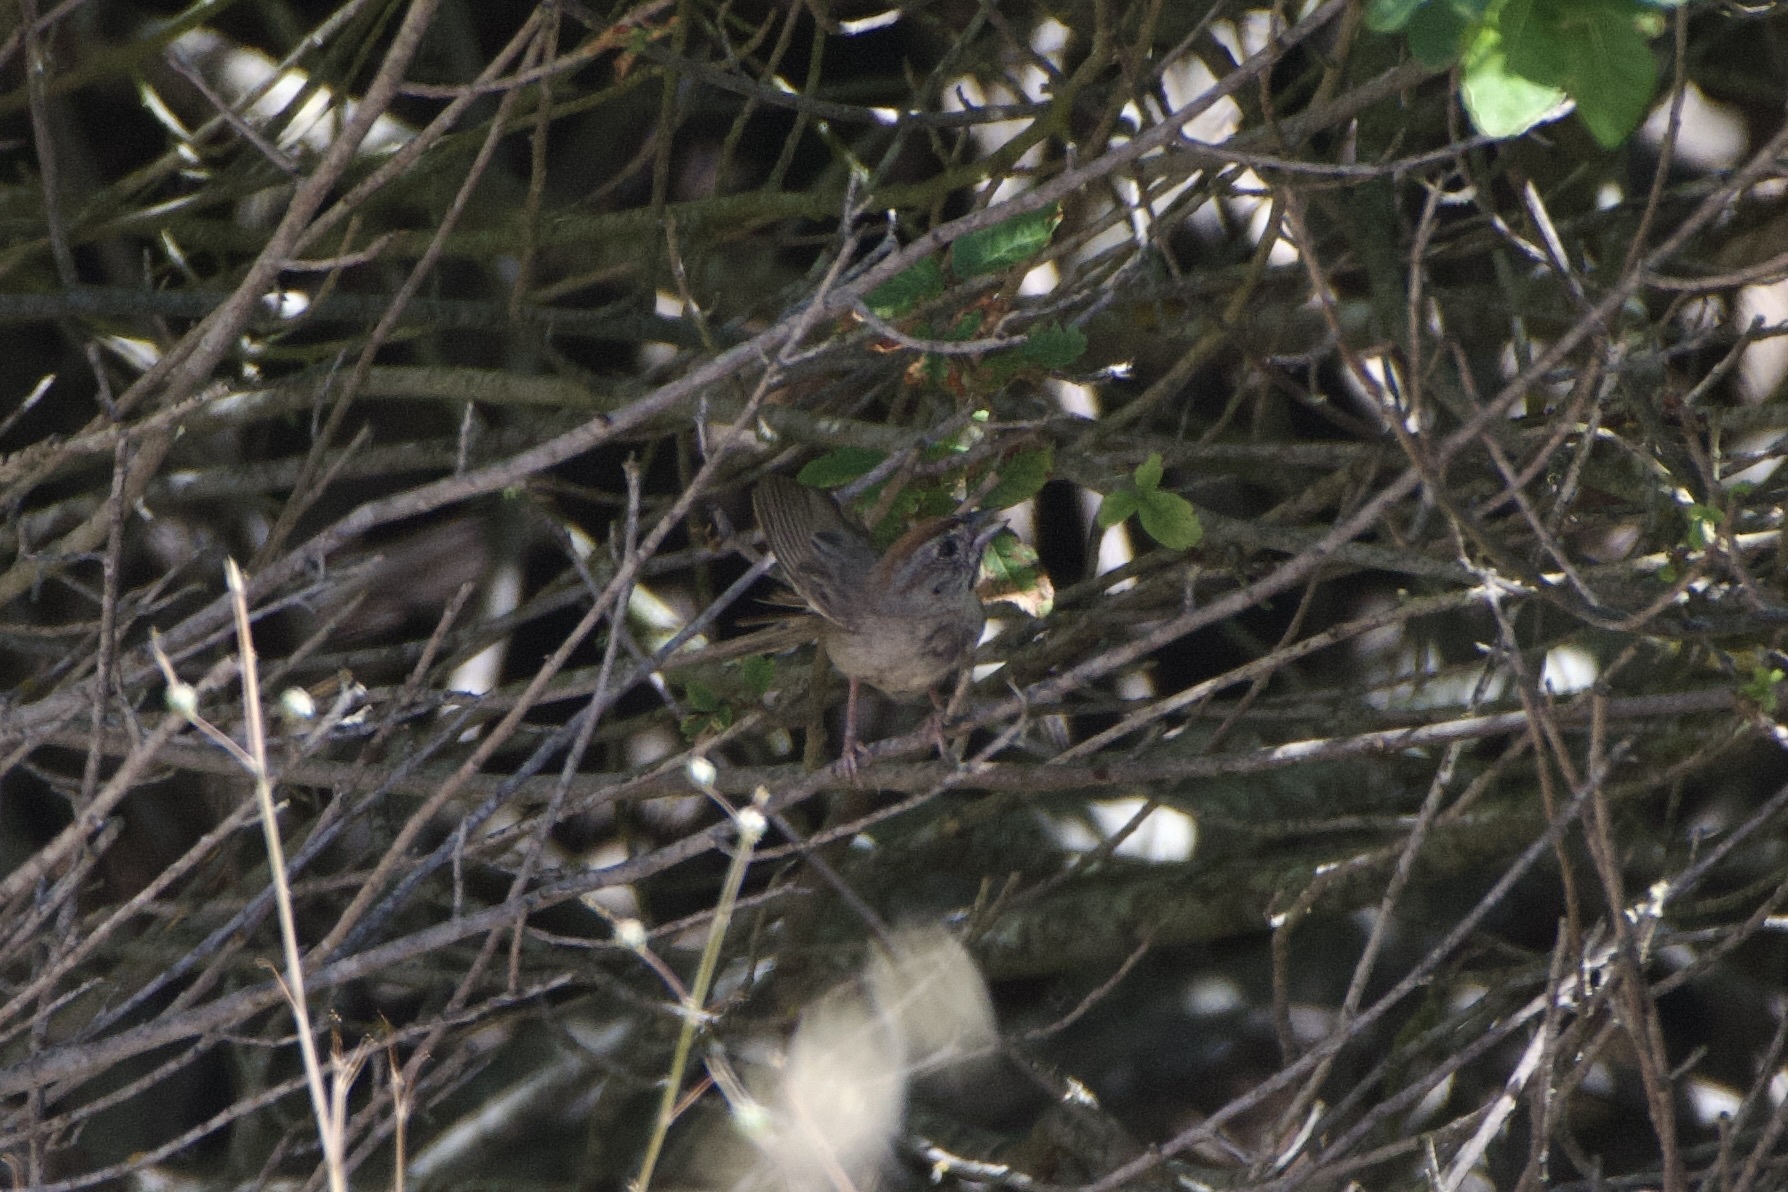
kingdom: Animalia
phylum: Chordata
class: Aves
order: Passeriformes
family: Passerellidae
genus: Aimophila
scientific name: Aimophila ruficeps
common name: Rufous-crowned sparrow
